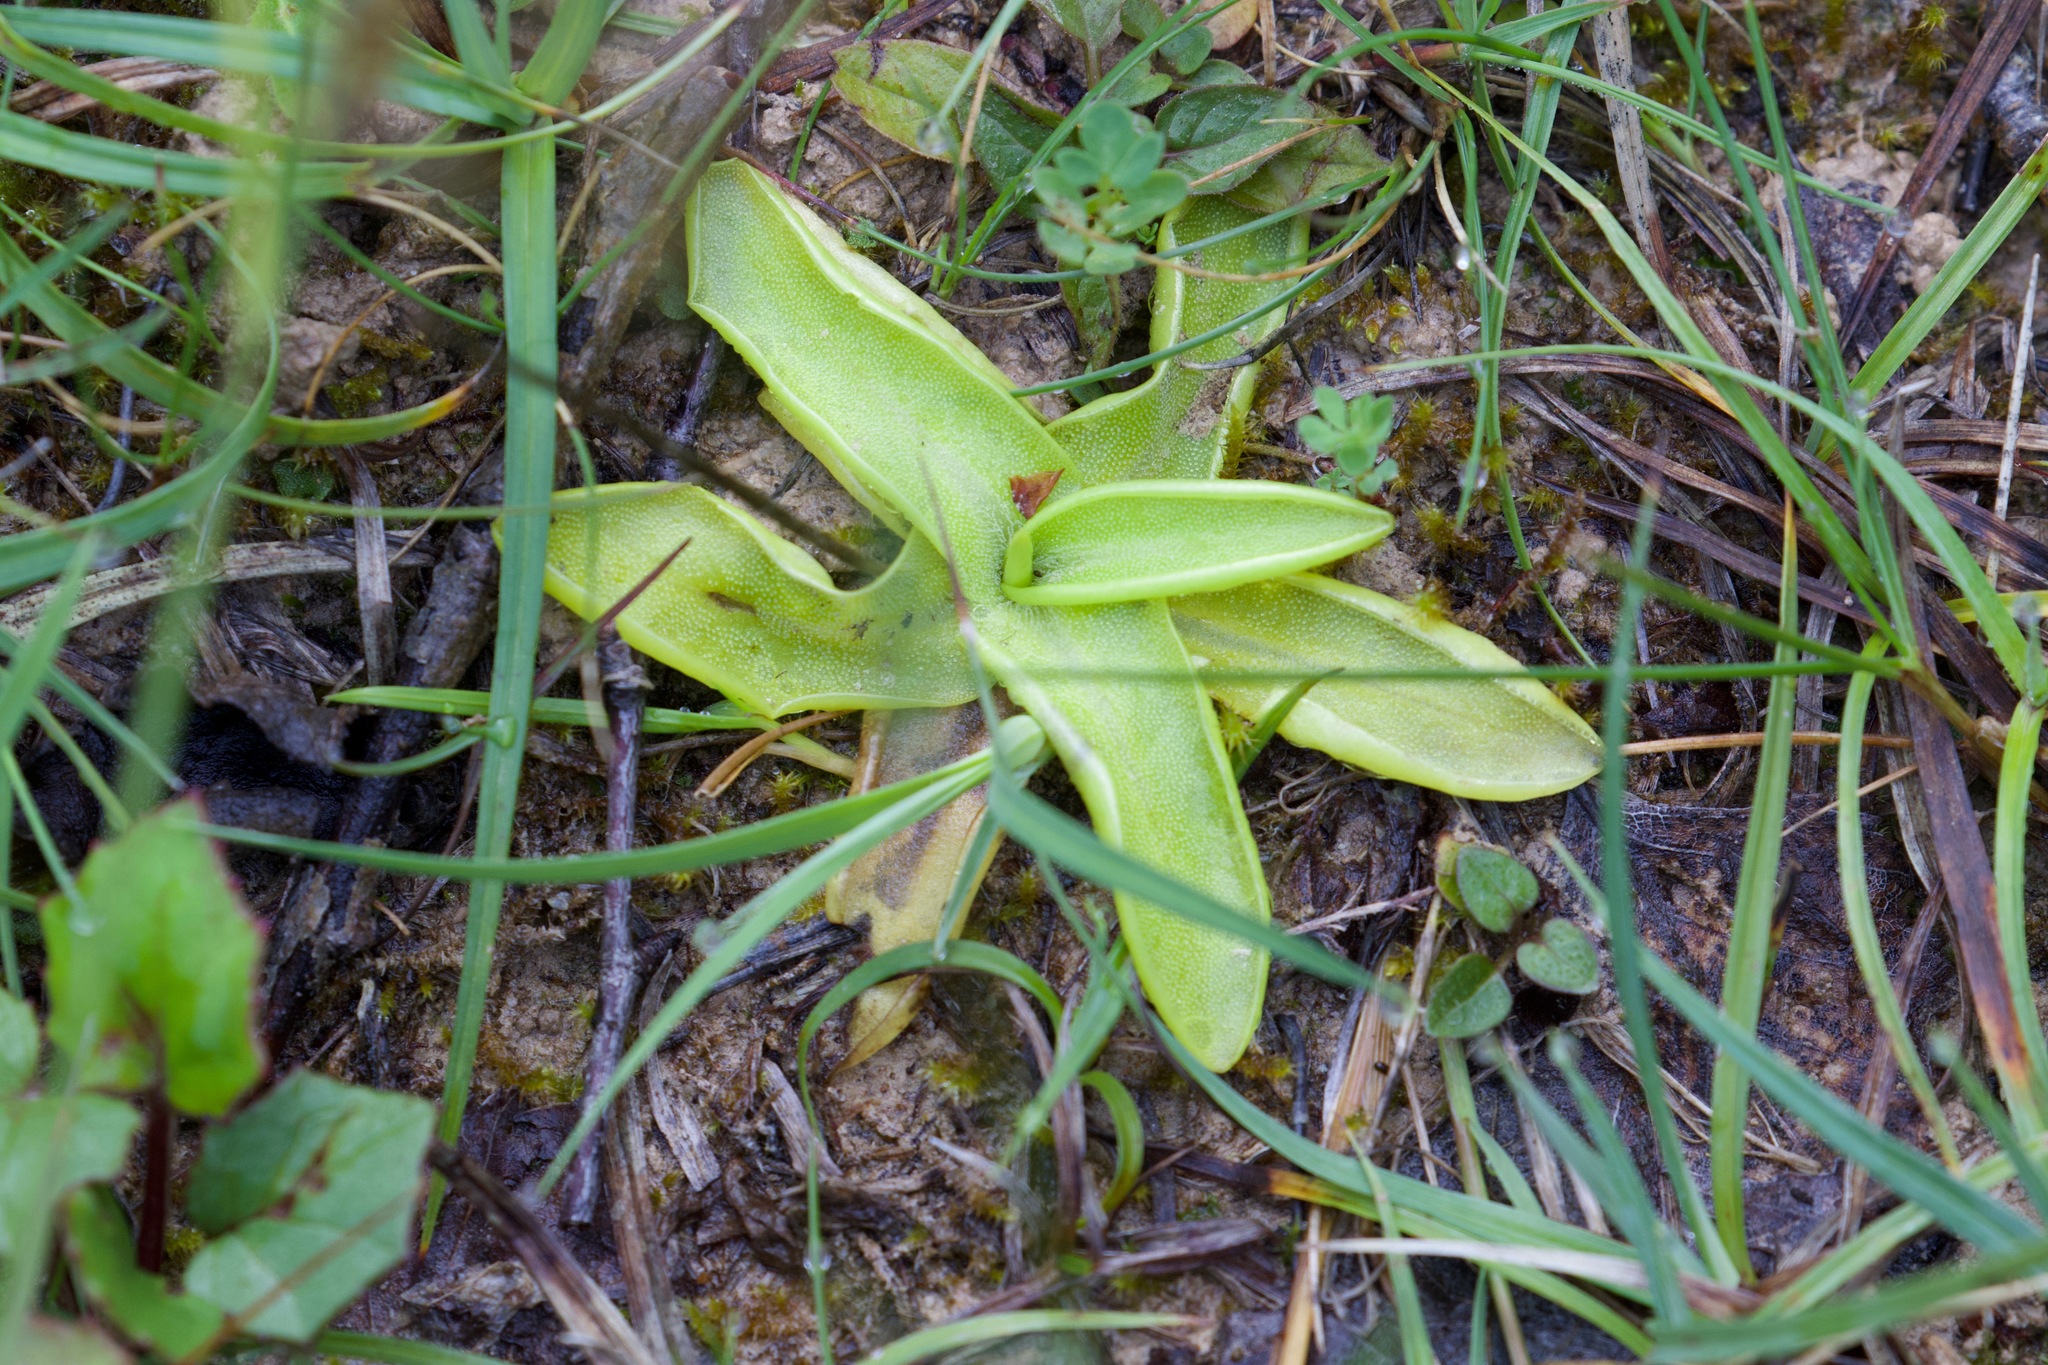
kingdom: Plantae
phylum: Tracheophyta
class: Magnoliopsida
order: Lamiales
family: Lentibulariaceae
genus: Pinguicula
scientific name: Pinguicula vulgaris
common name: Common butterwort
